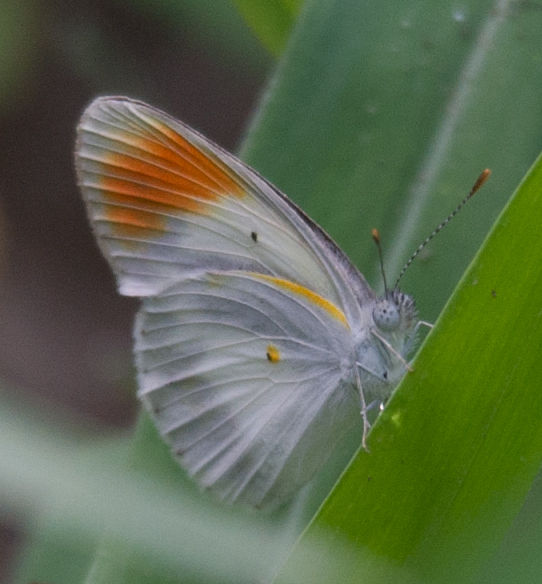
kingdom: Animalia
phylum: Arthropoda
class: Insecta
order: Lepidoptera
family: Pieridae
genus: Colotis
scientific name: Colotis evagore
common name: Desert orange-tip
